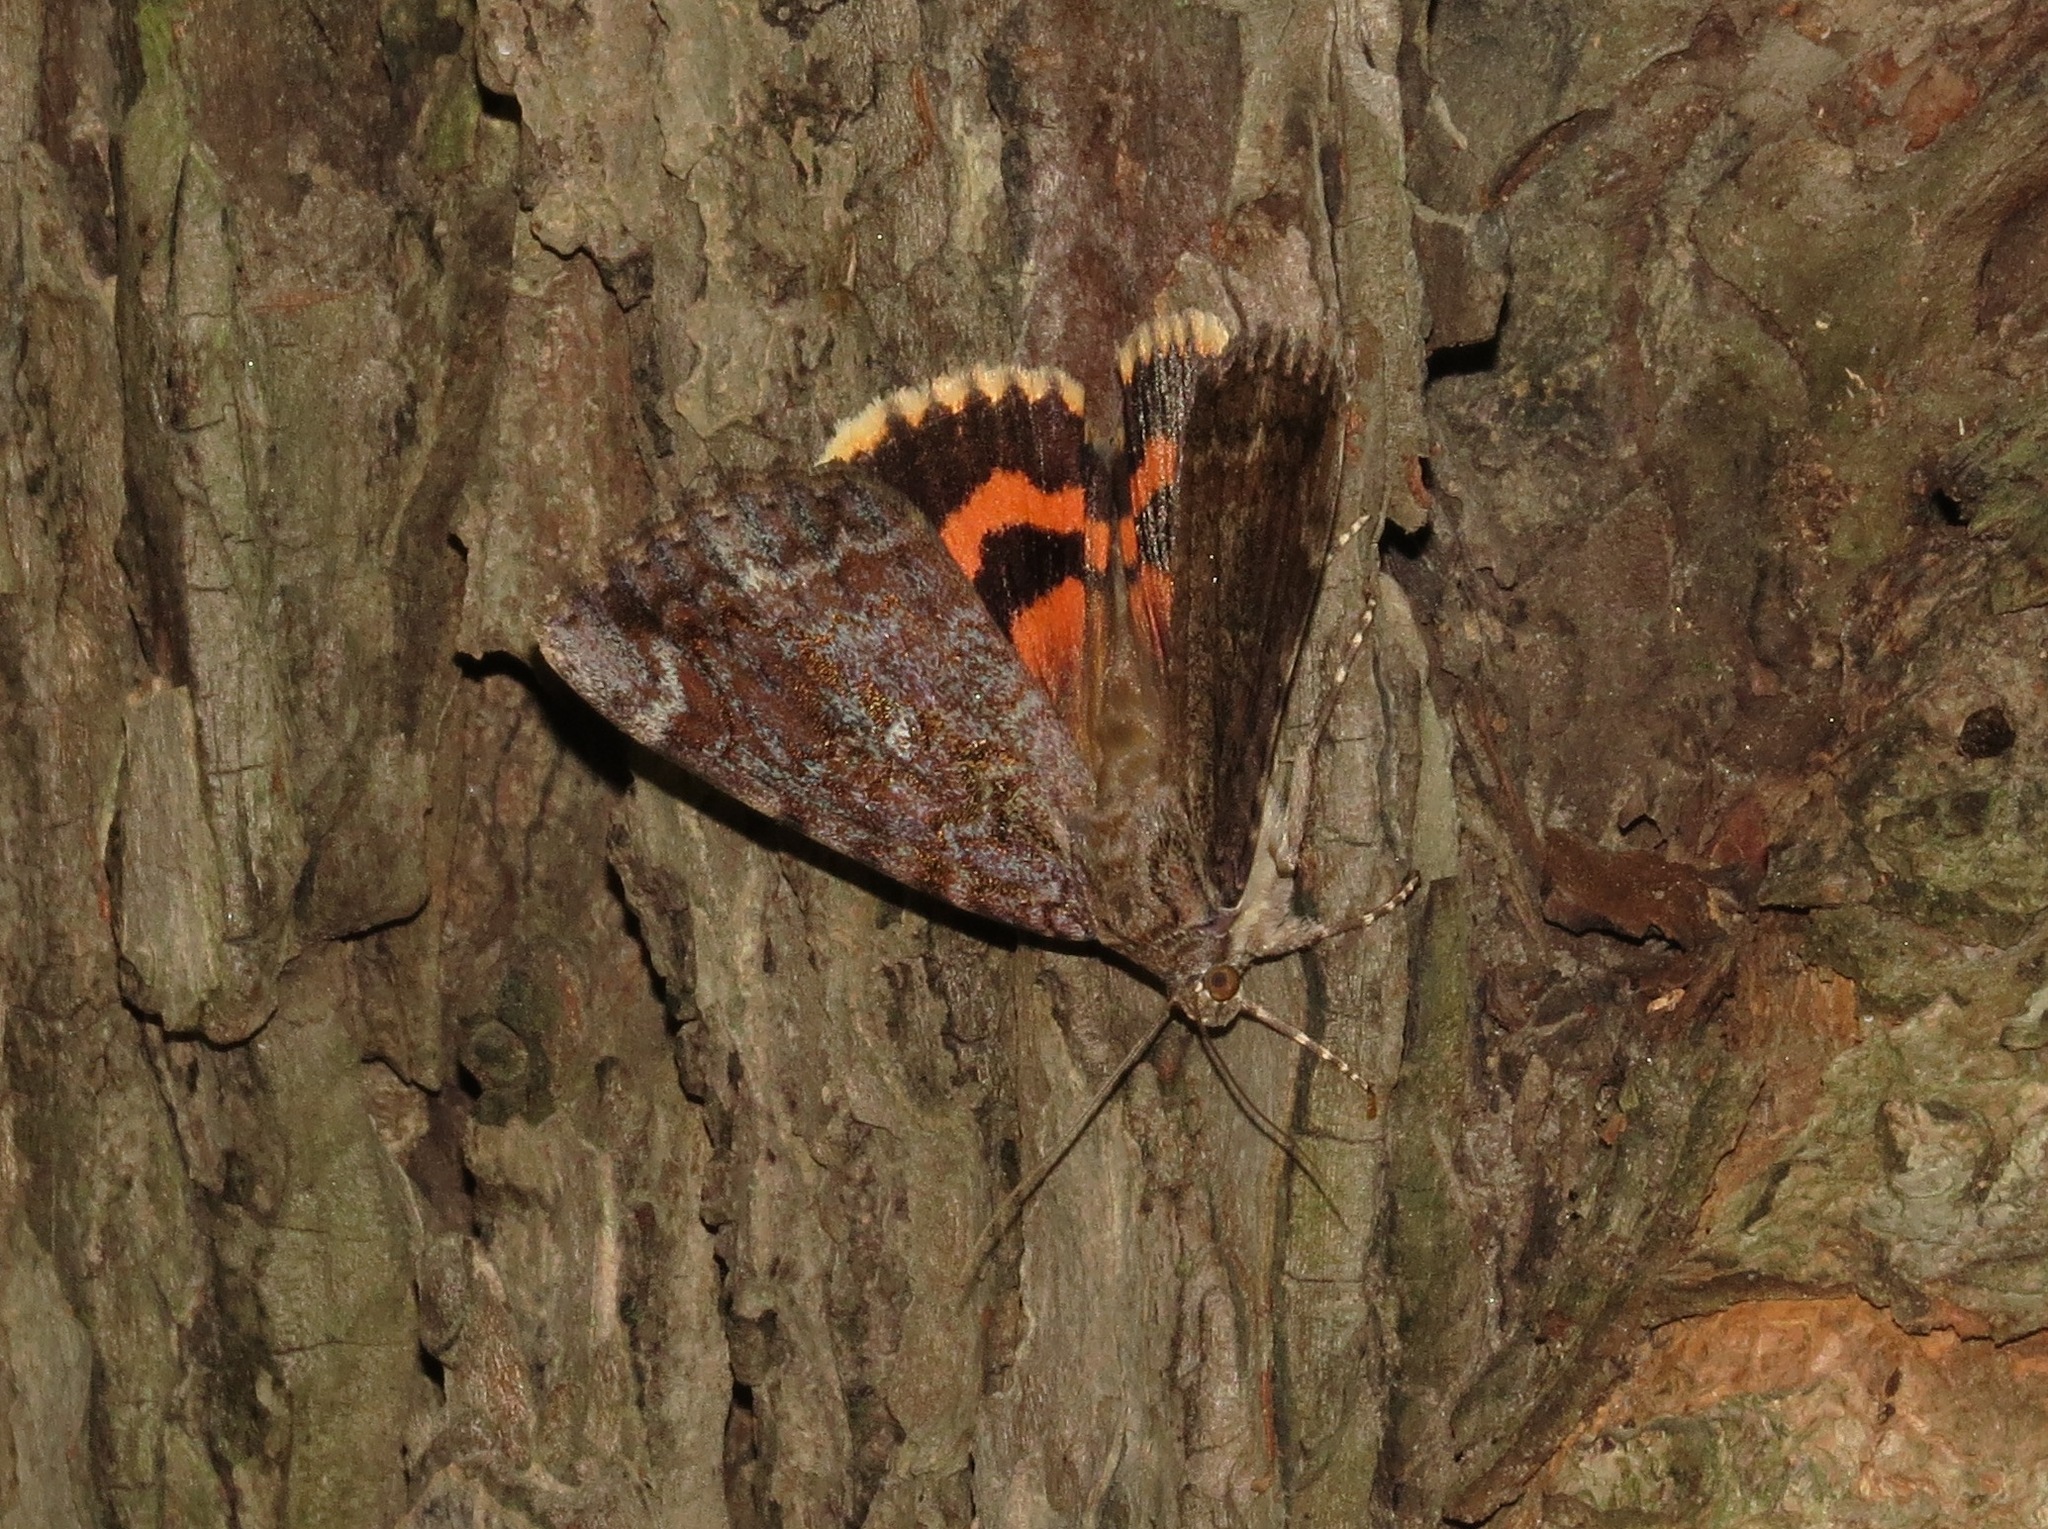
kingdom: Animalia
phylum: Arthropoda
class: Insecta
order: Lepidoptera
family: Erebidae
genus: Catocala
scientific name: Catocala innubens
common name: Betrothed underwing
